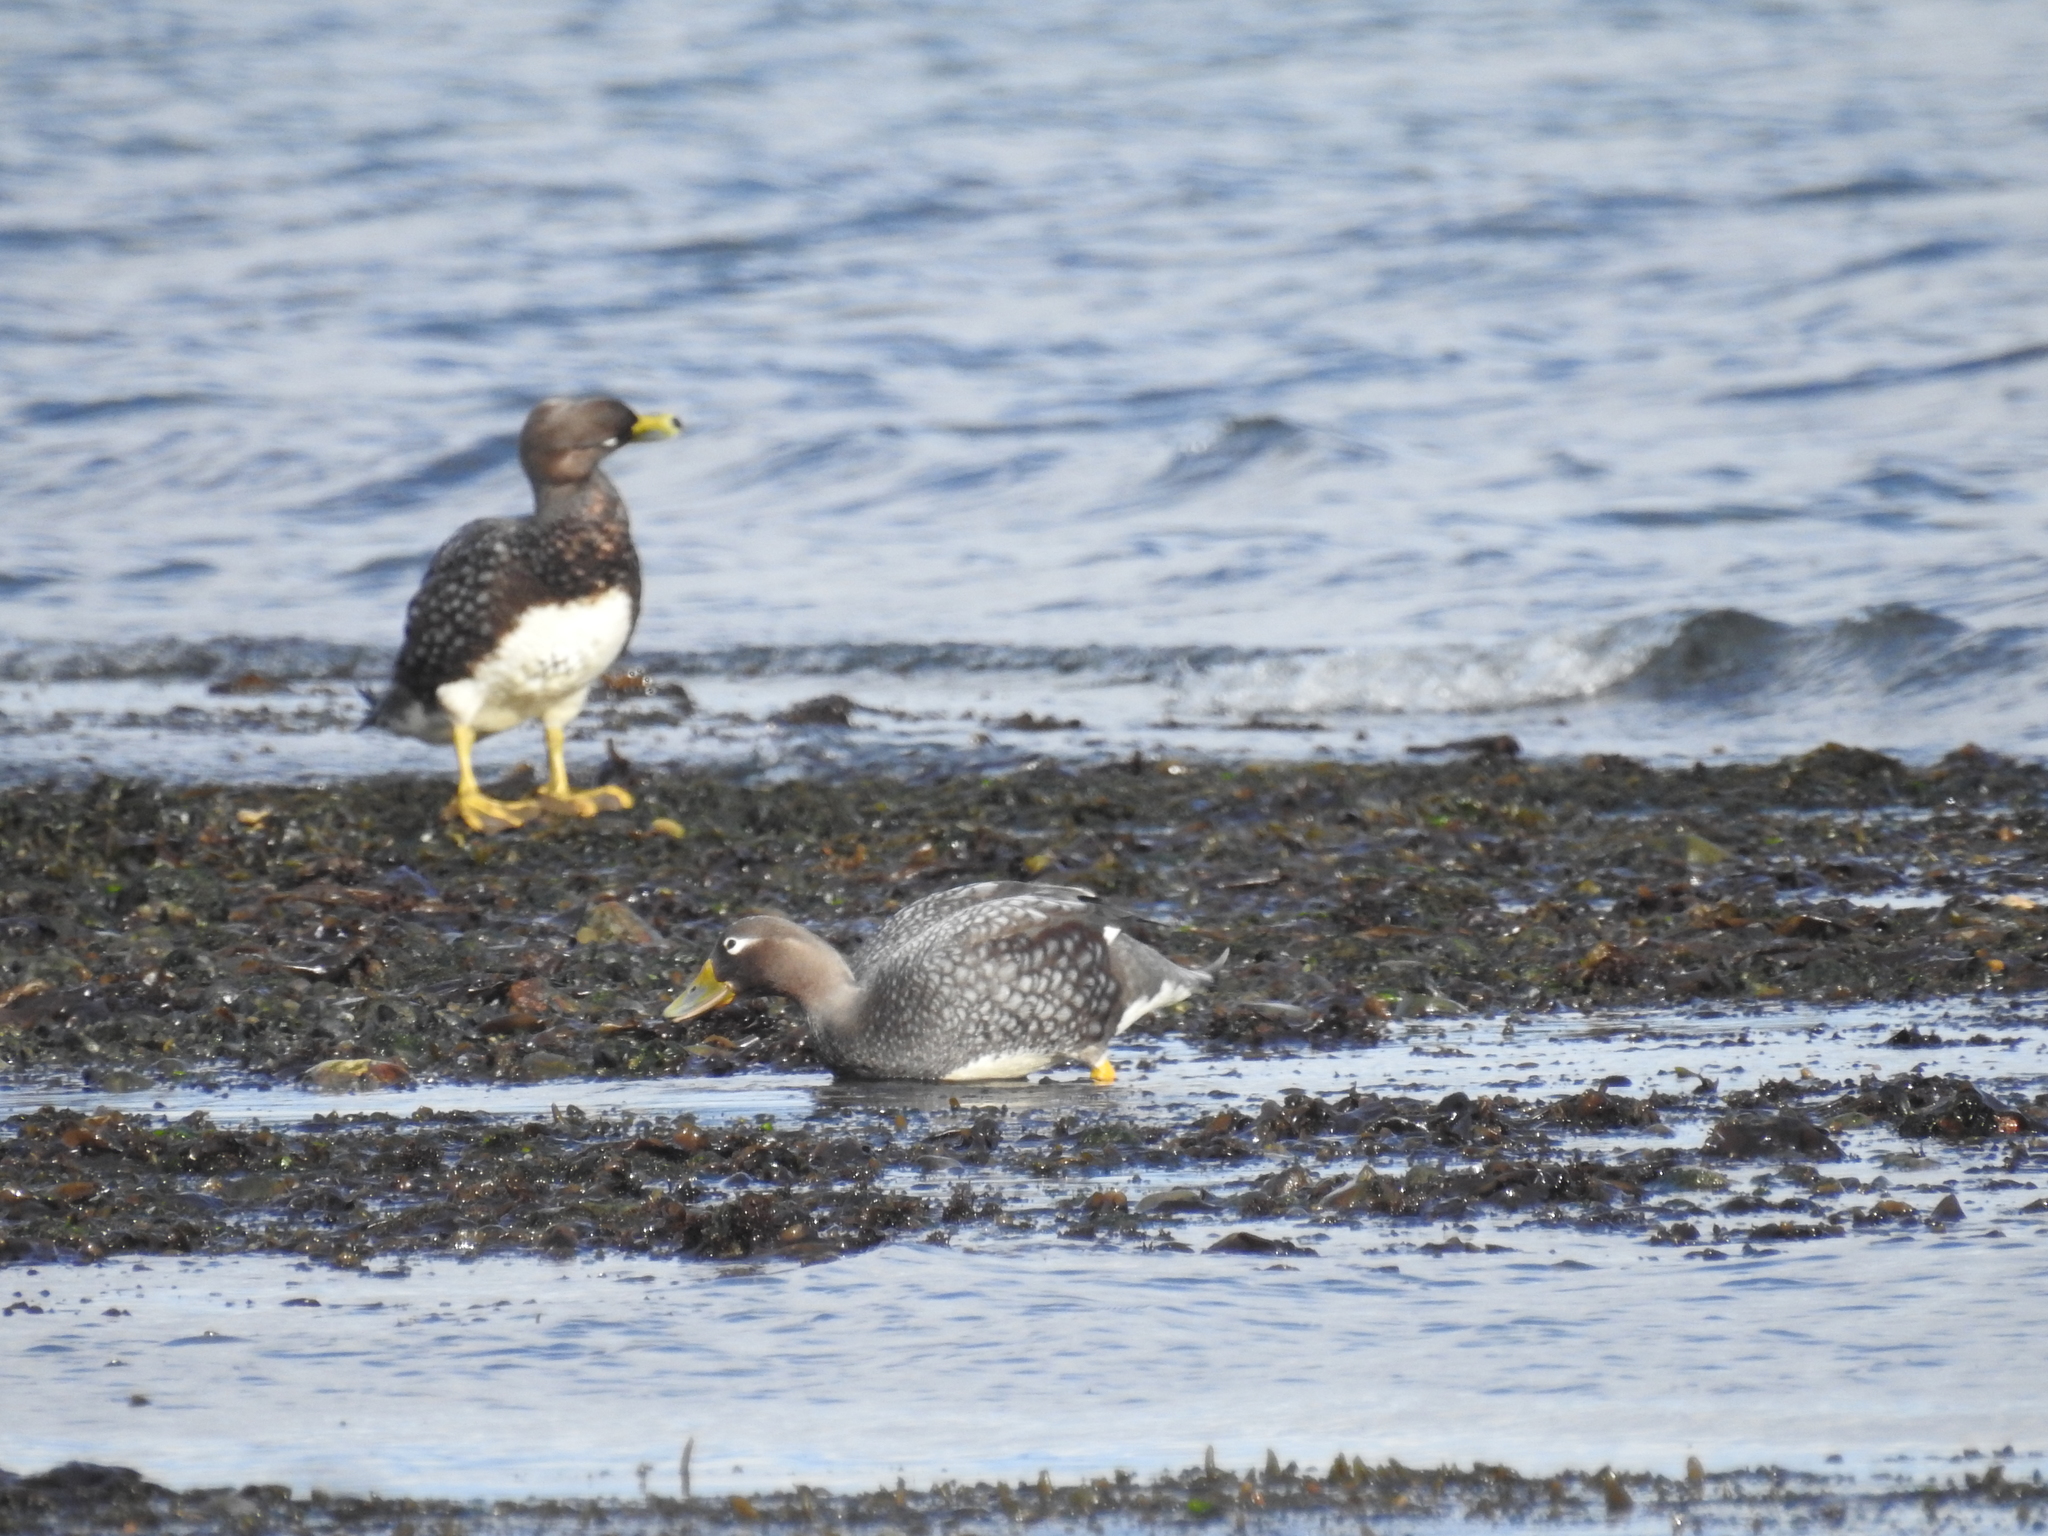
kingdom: Animalia
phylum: Chordata
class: Aves
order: Anseriformes
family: Anatidae
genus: Tachyeres
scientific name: Tachyeres patachonicus
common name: Flying steamer duck
